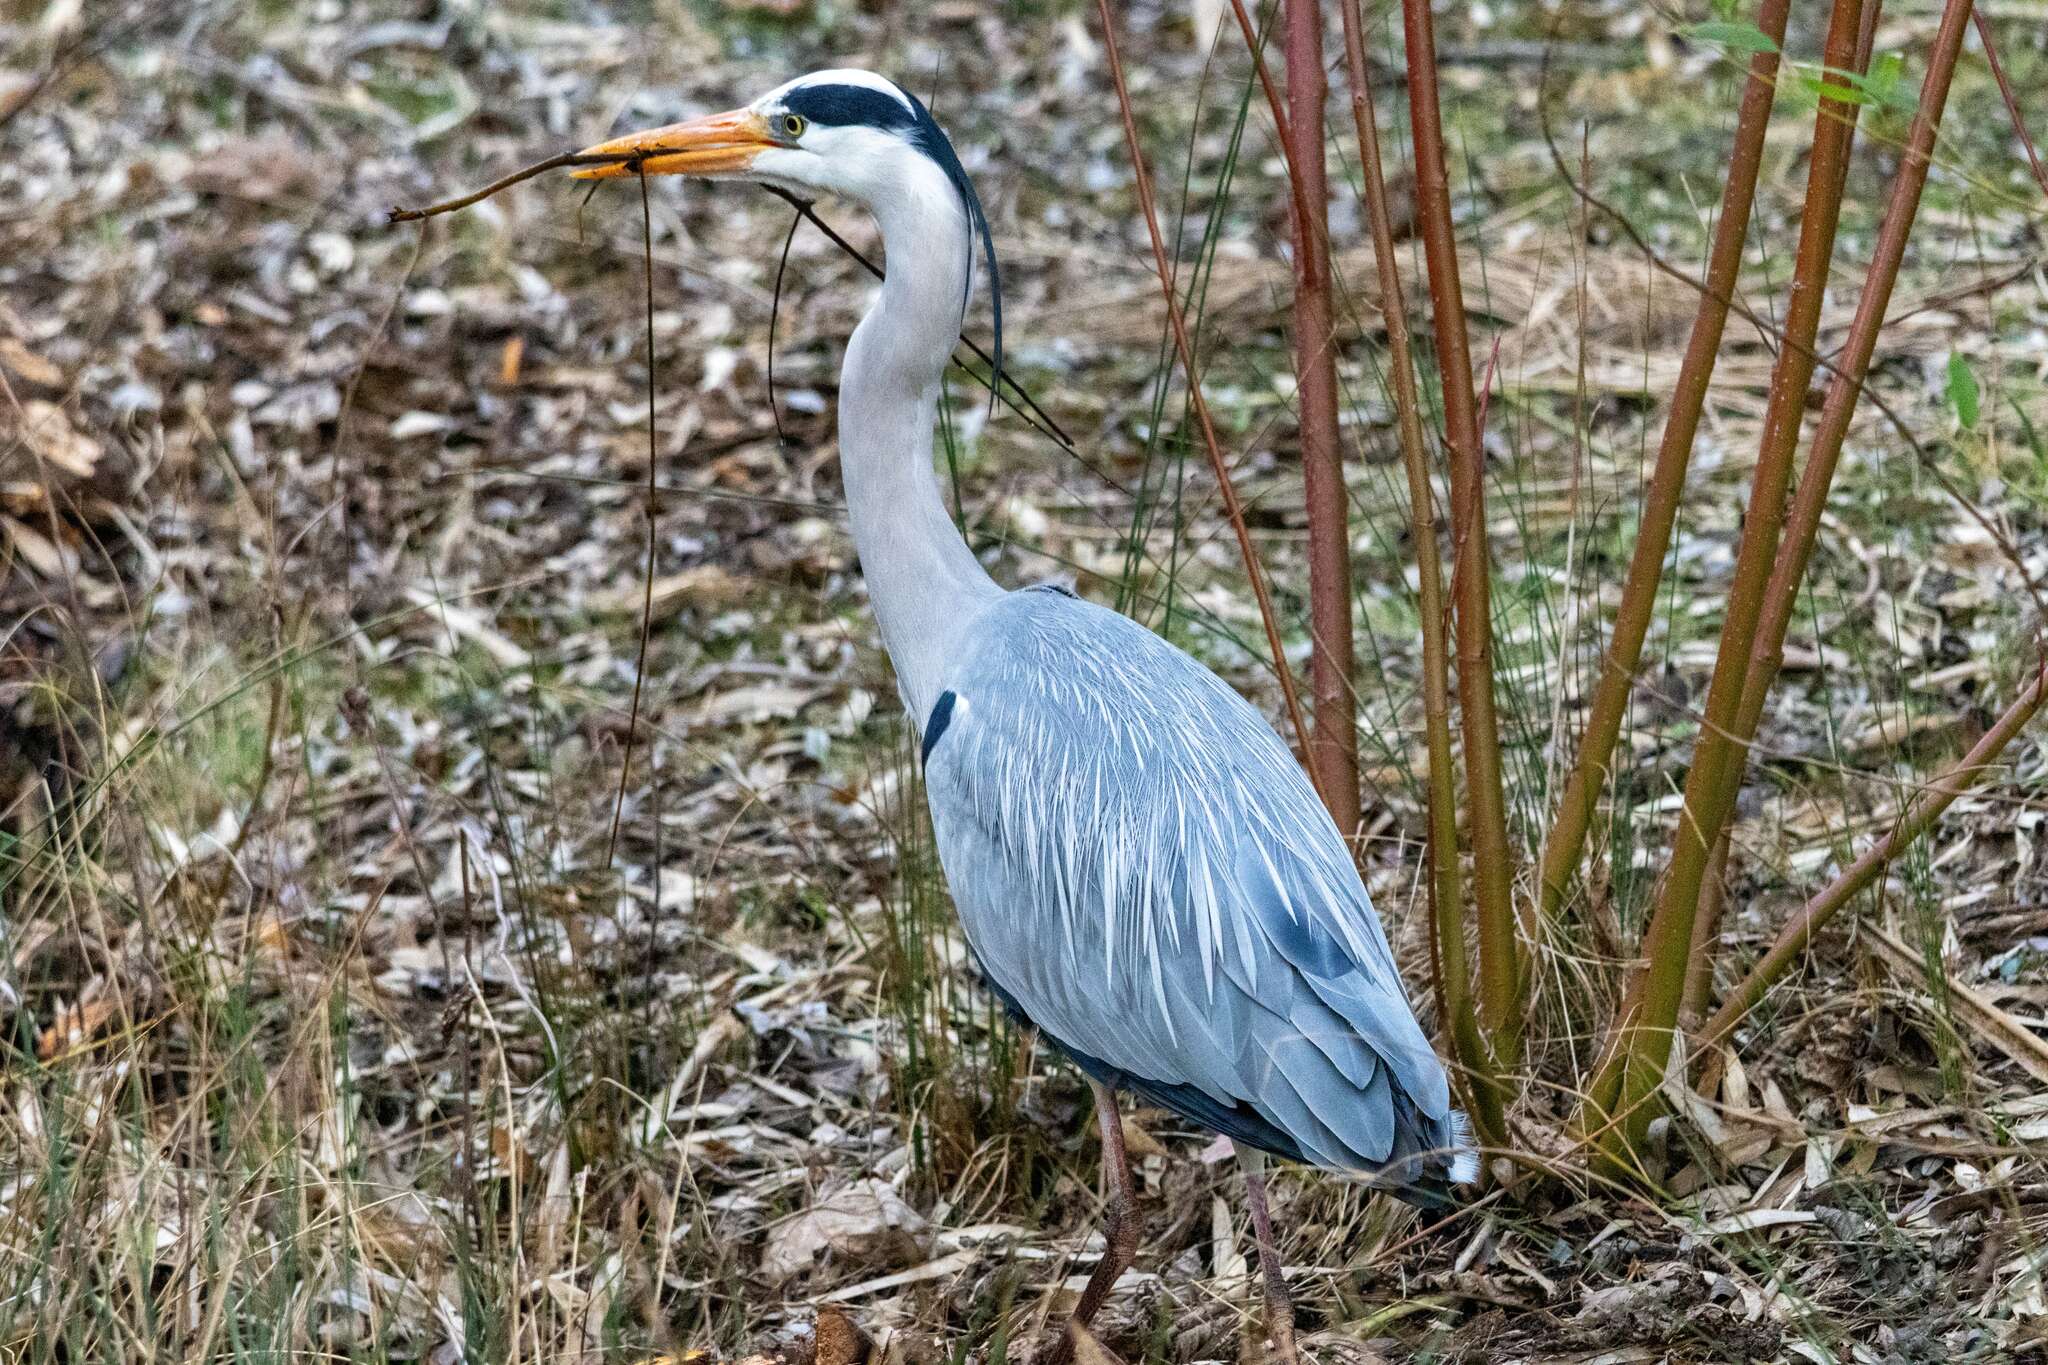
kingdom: Animalia
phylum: Chordata
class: Aves
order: Pelecaniformes
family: Ardeidae
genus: Ardea
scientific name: Ardea cinerea
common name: Grey heron
